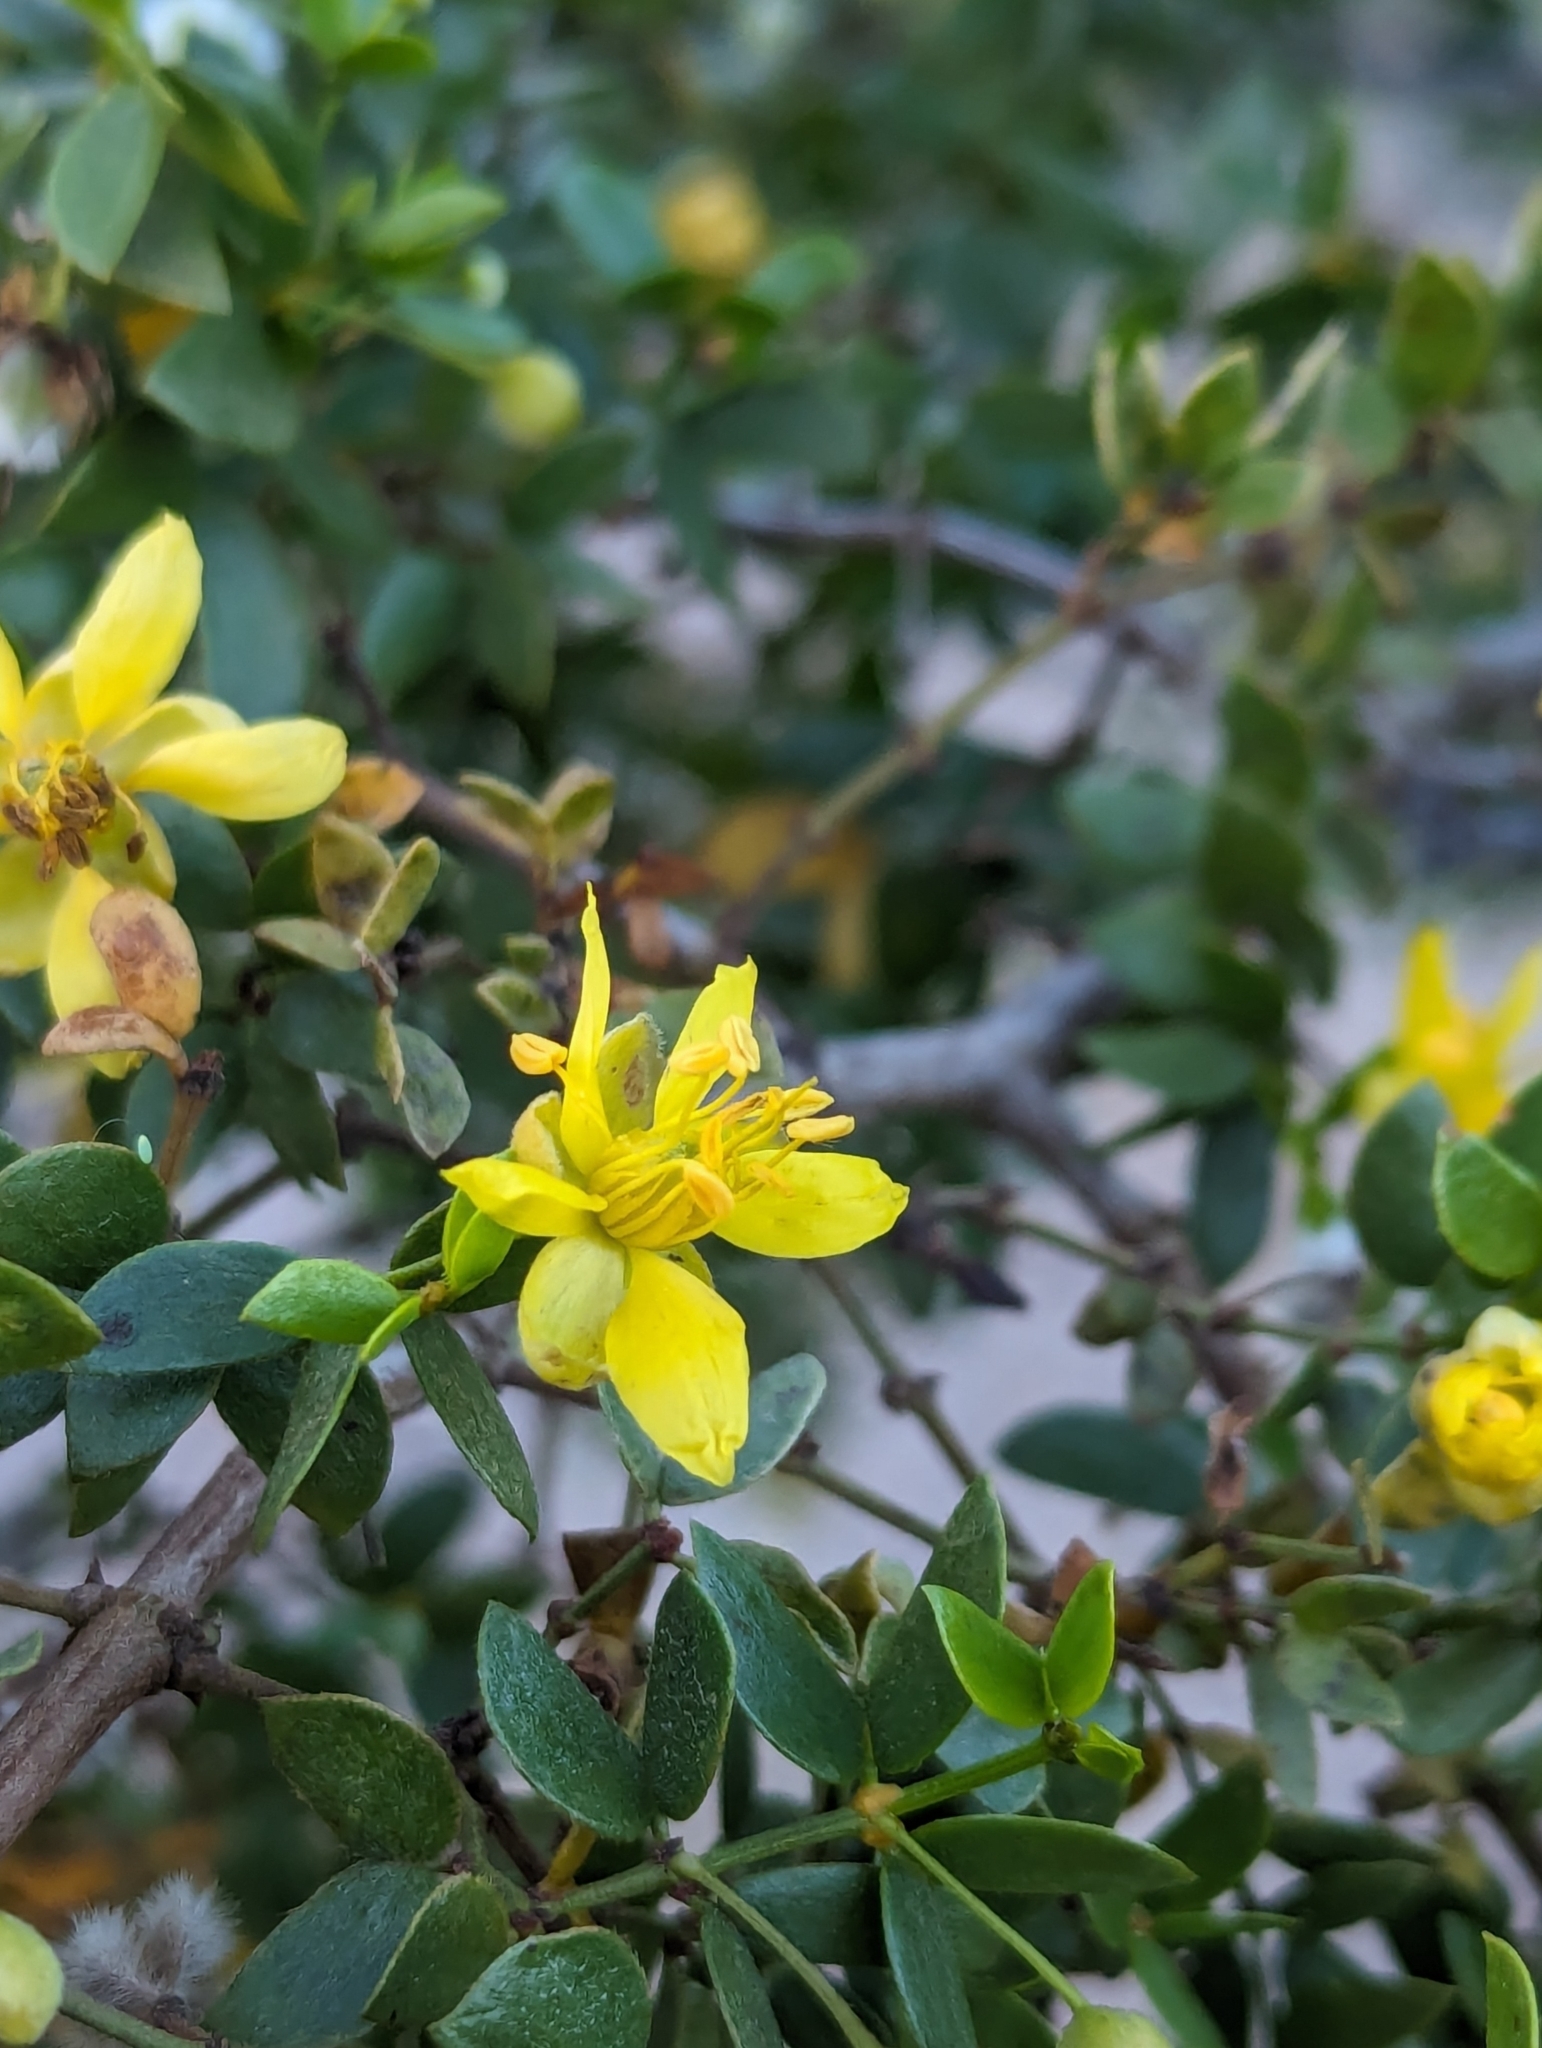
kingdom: Plantae
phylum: Tracheophyta
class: Magnoliopsida
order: Zygophyllales
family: Zygophyllaceae
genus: Larrea
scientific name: Larrea tridentata
